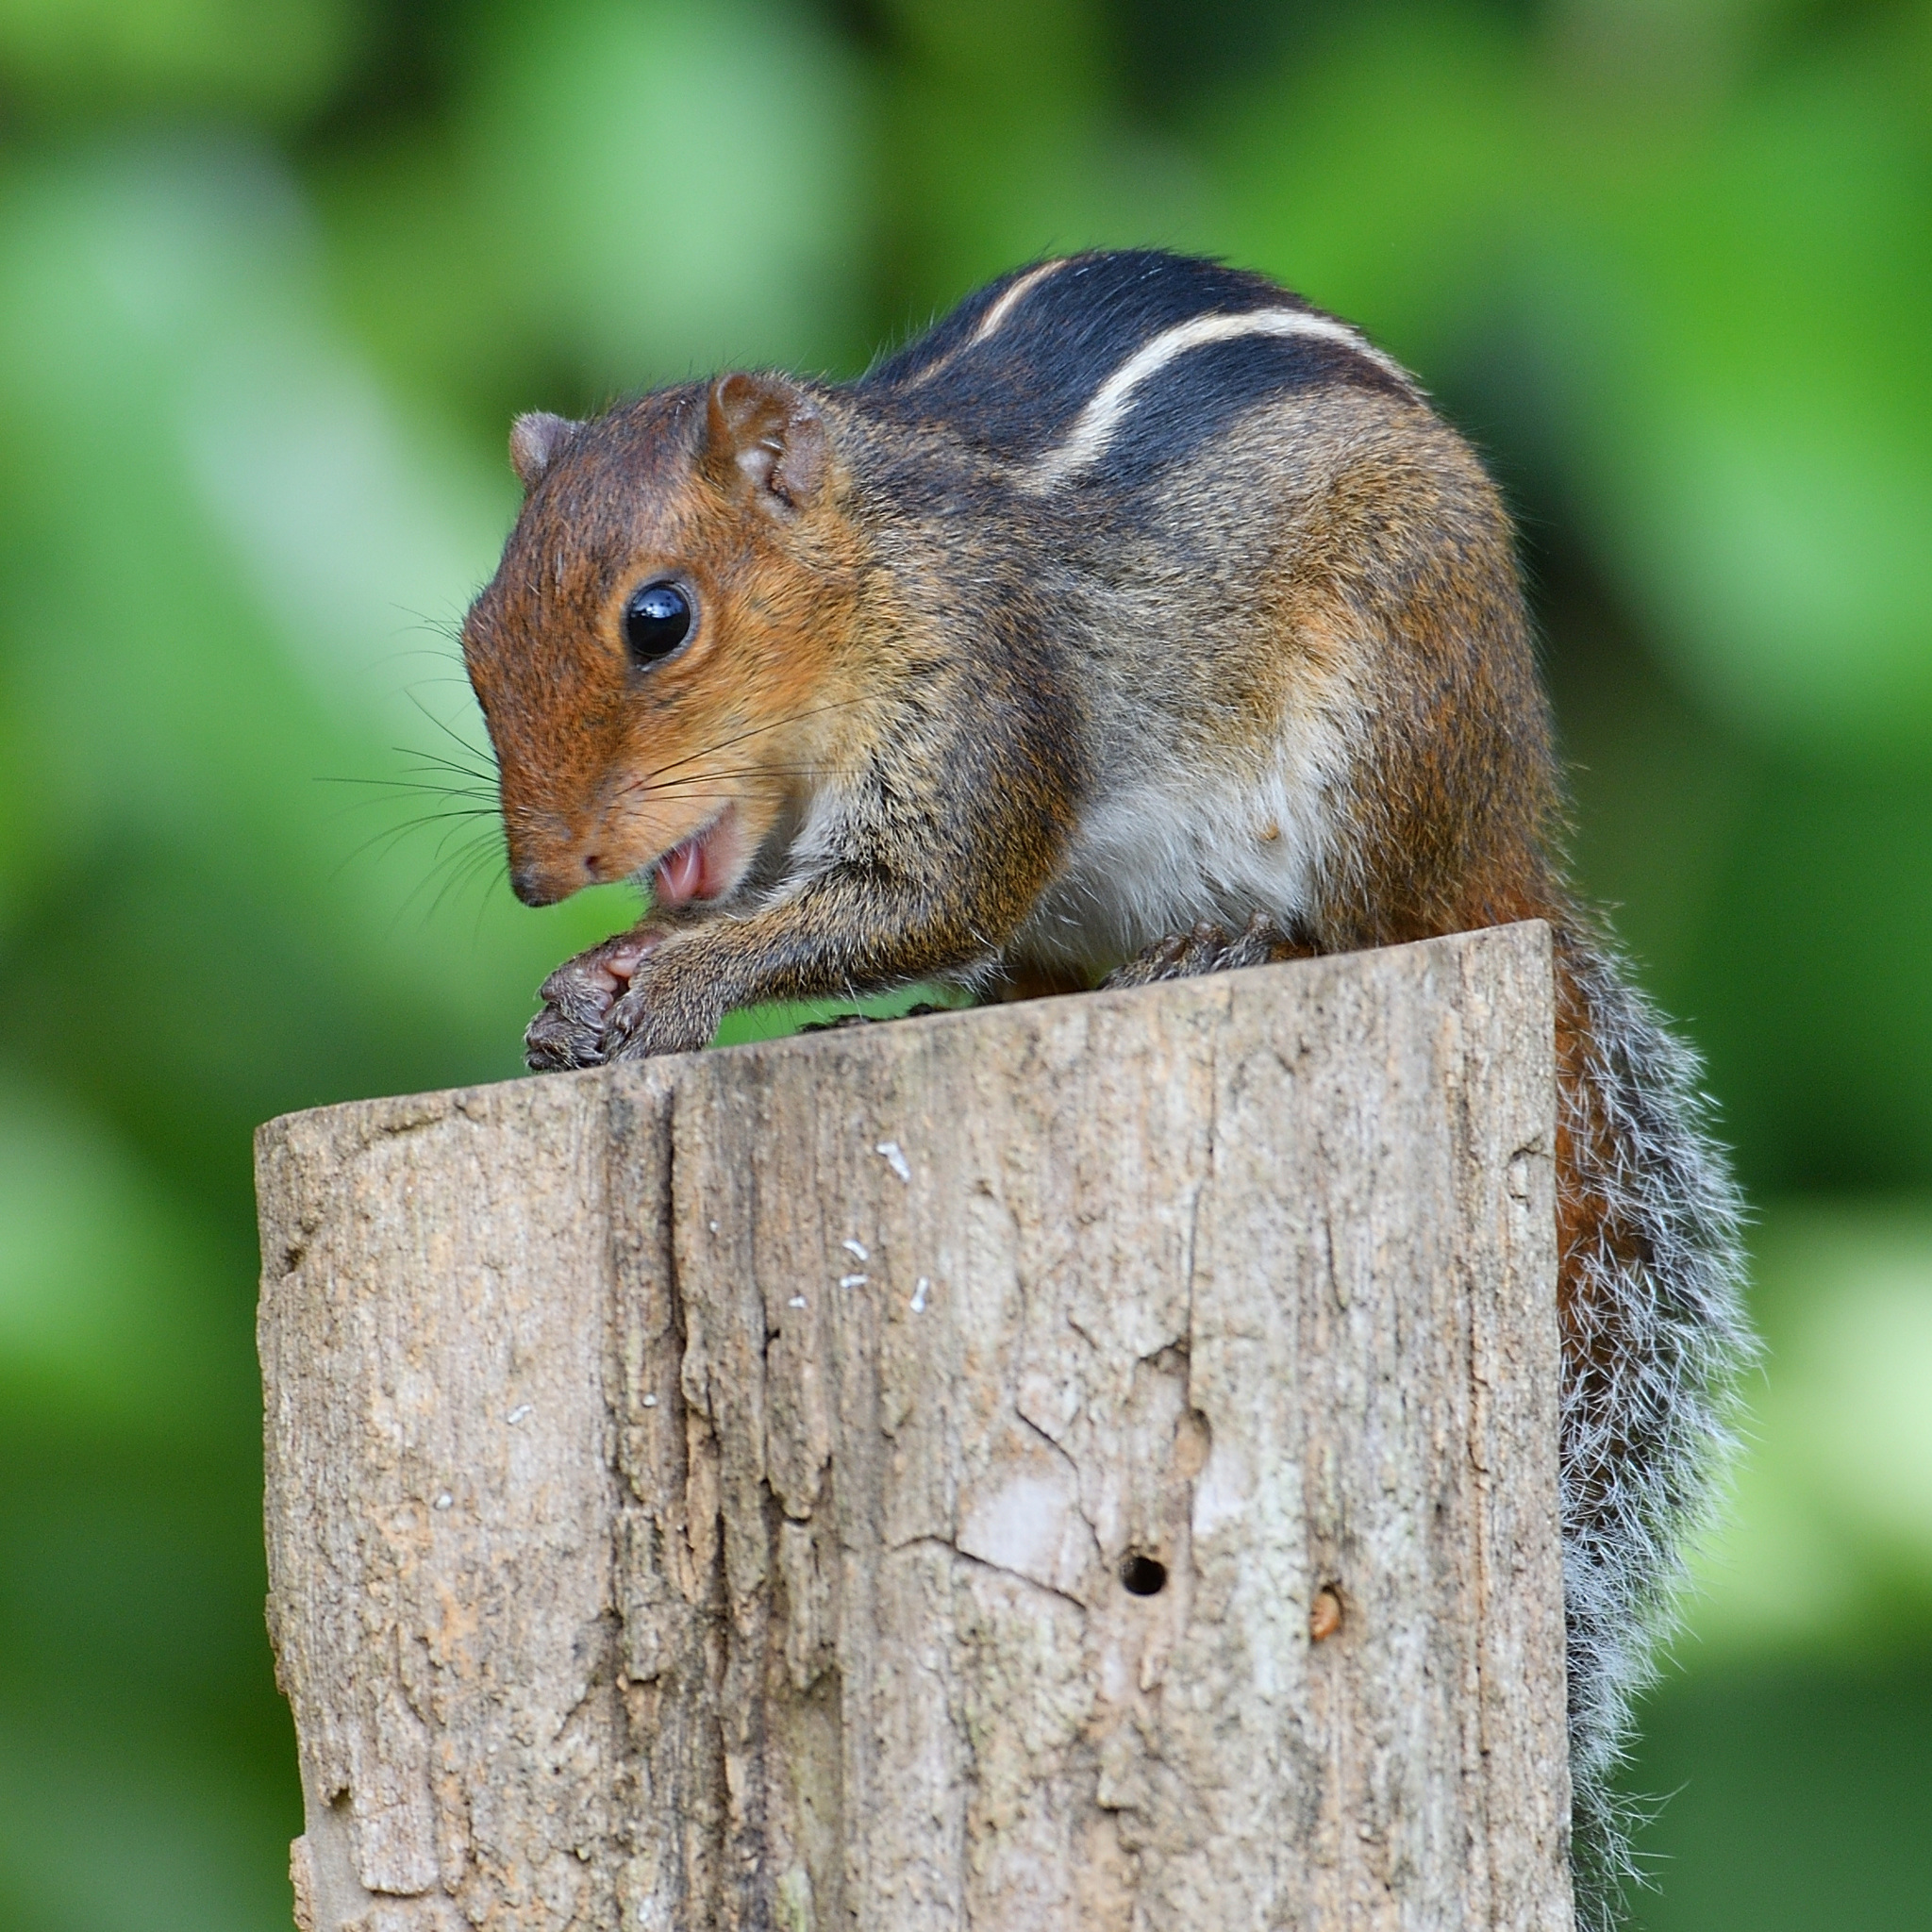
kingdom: Animalia
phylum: Chordata
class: Mammalia
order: Rodentia
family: Sciuridae
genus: Funambulus
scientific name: Funambulus tristriatus
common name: Jungle palm squirrel
